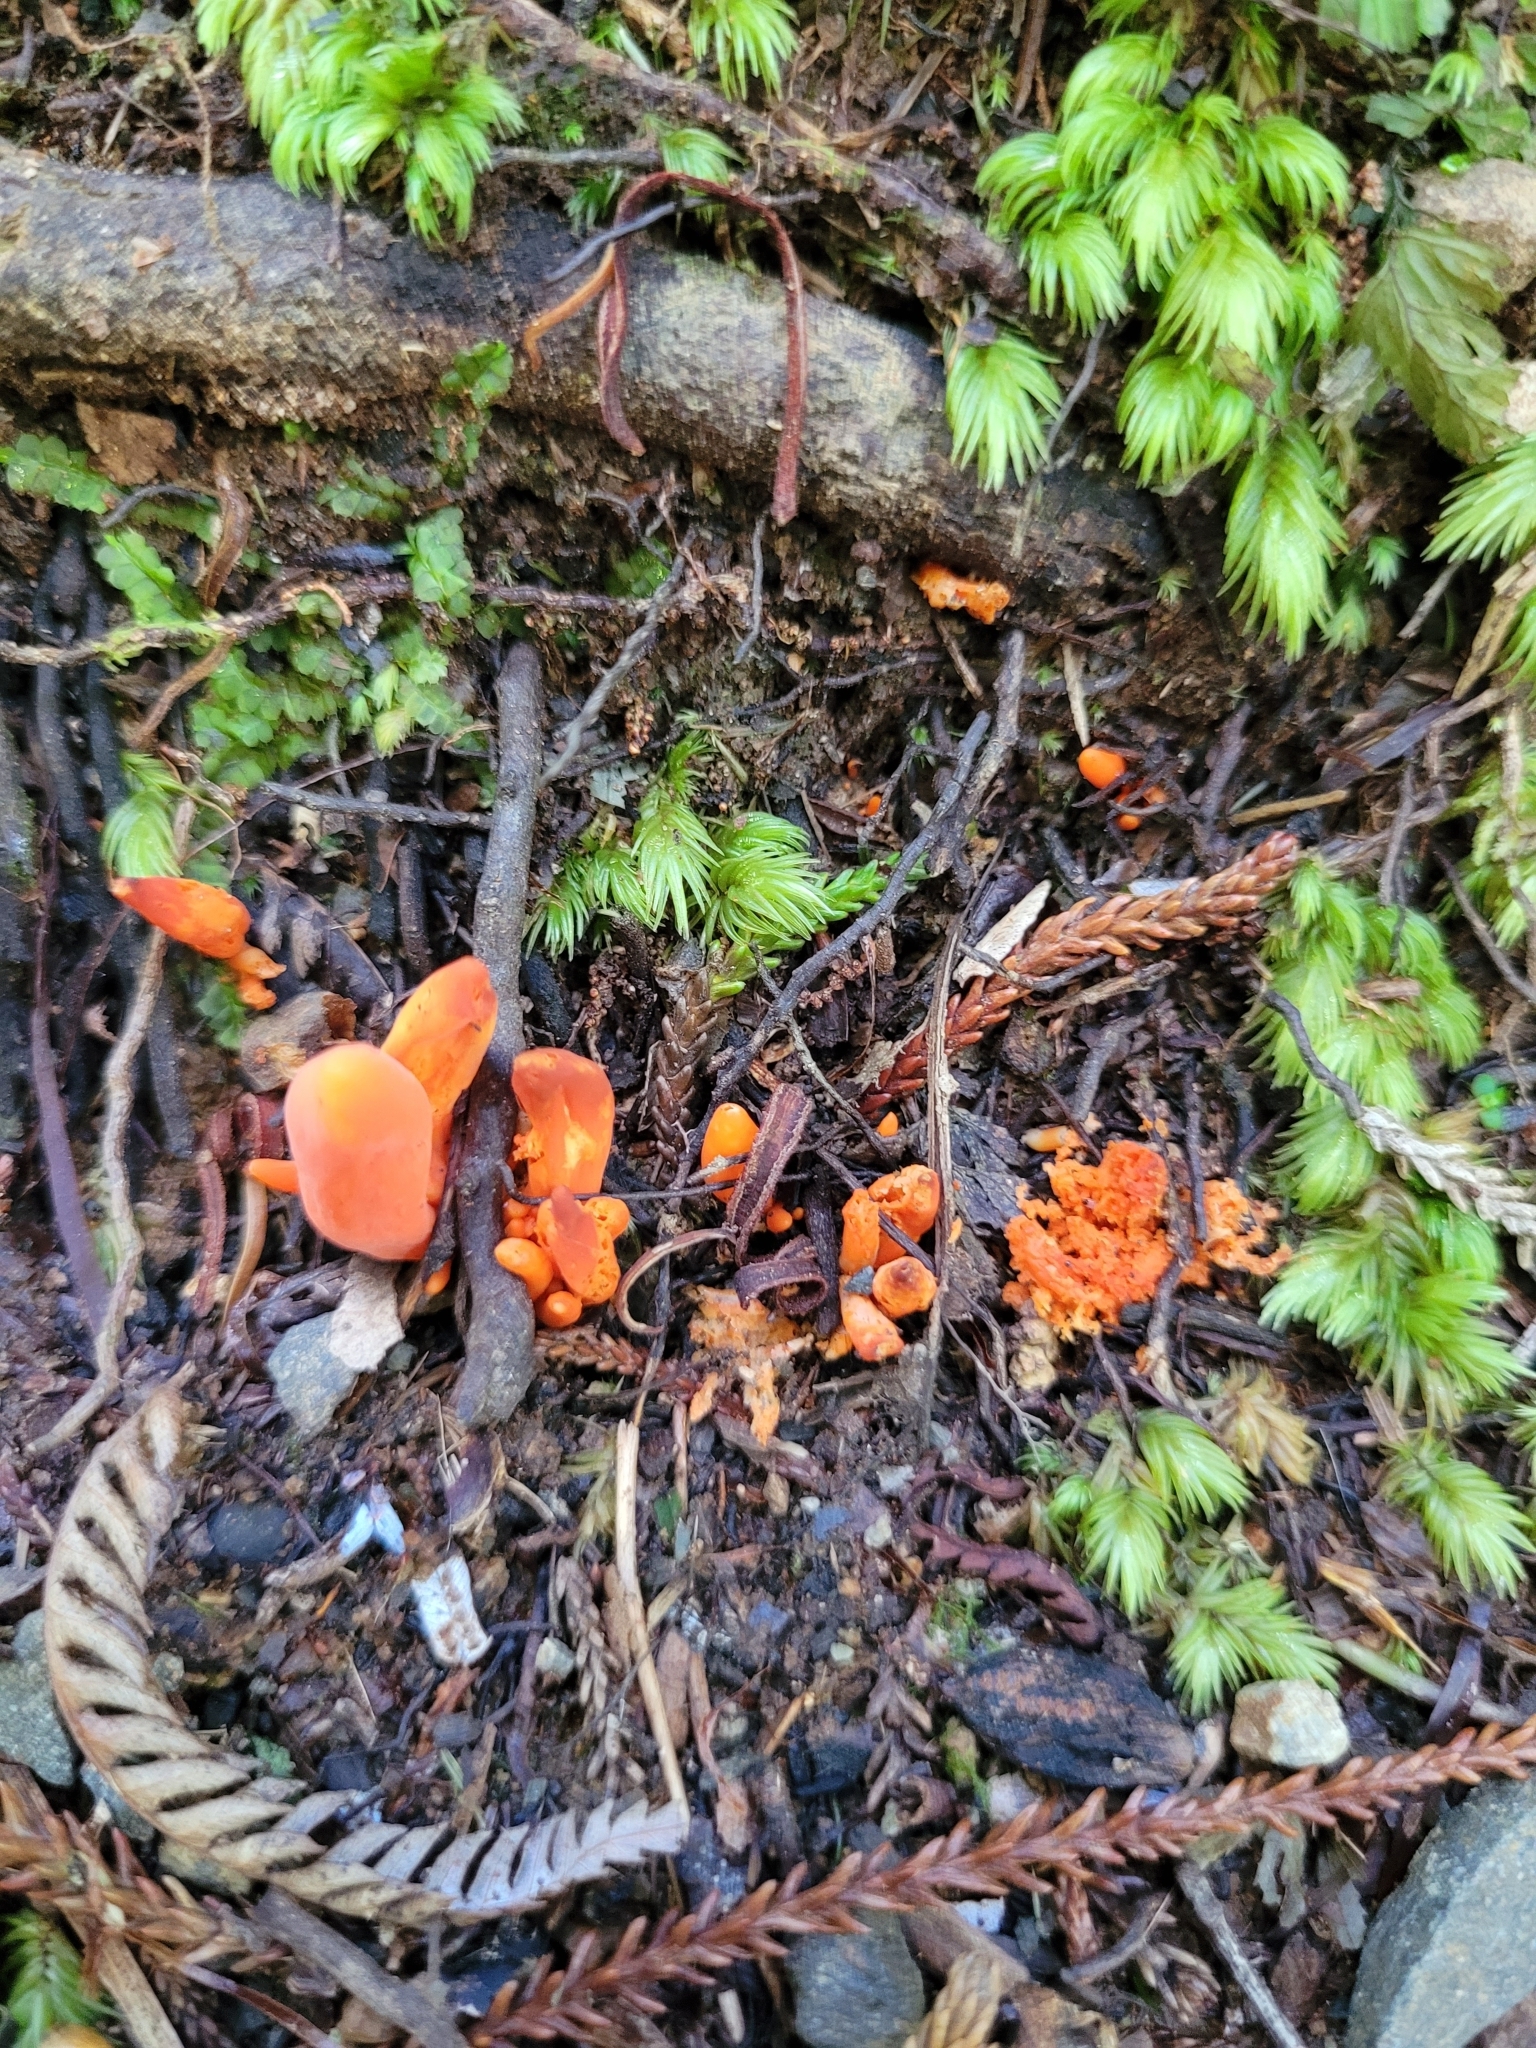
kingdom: Fungi
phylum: Basidiomycota
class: Agaricomycetes
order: Agaricales
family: Clavariaceae
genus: Clavulinopsis
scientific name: Clavulinopsis sulcata
